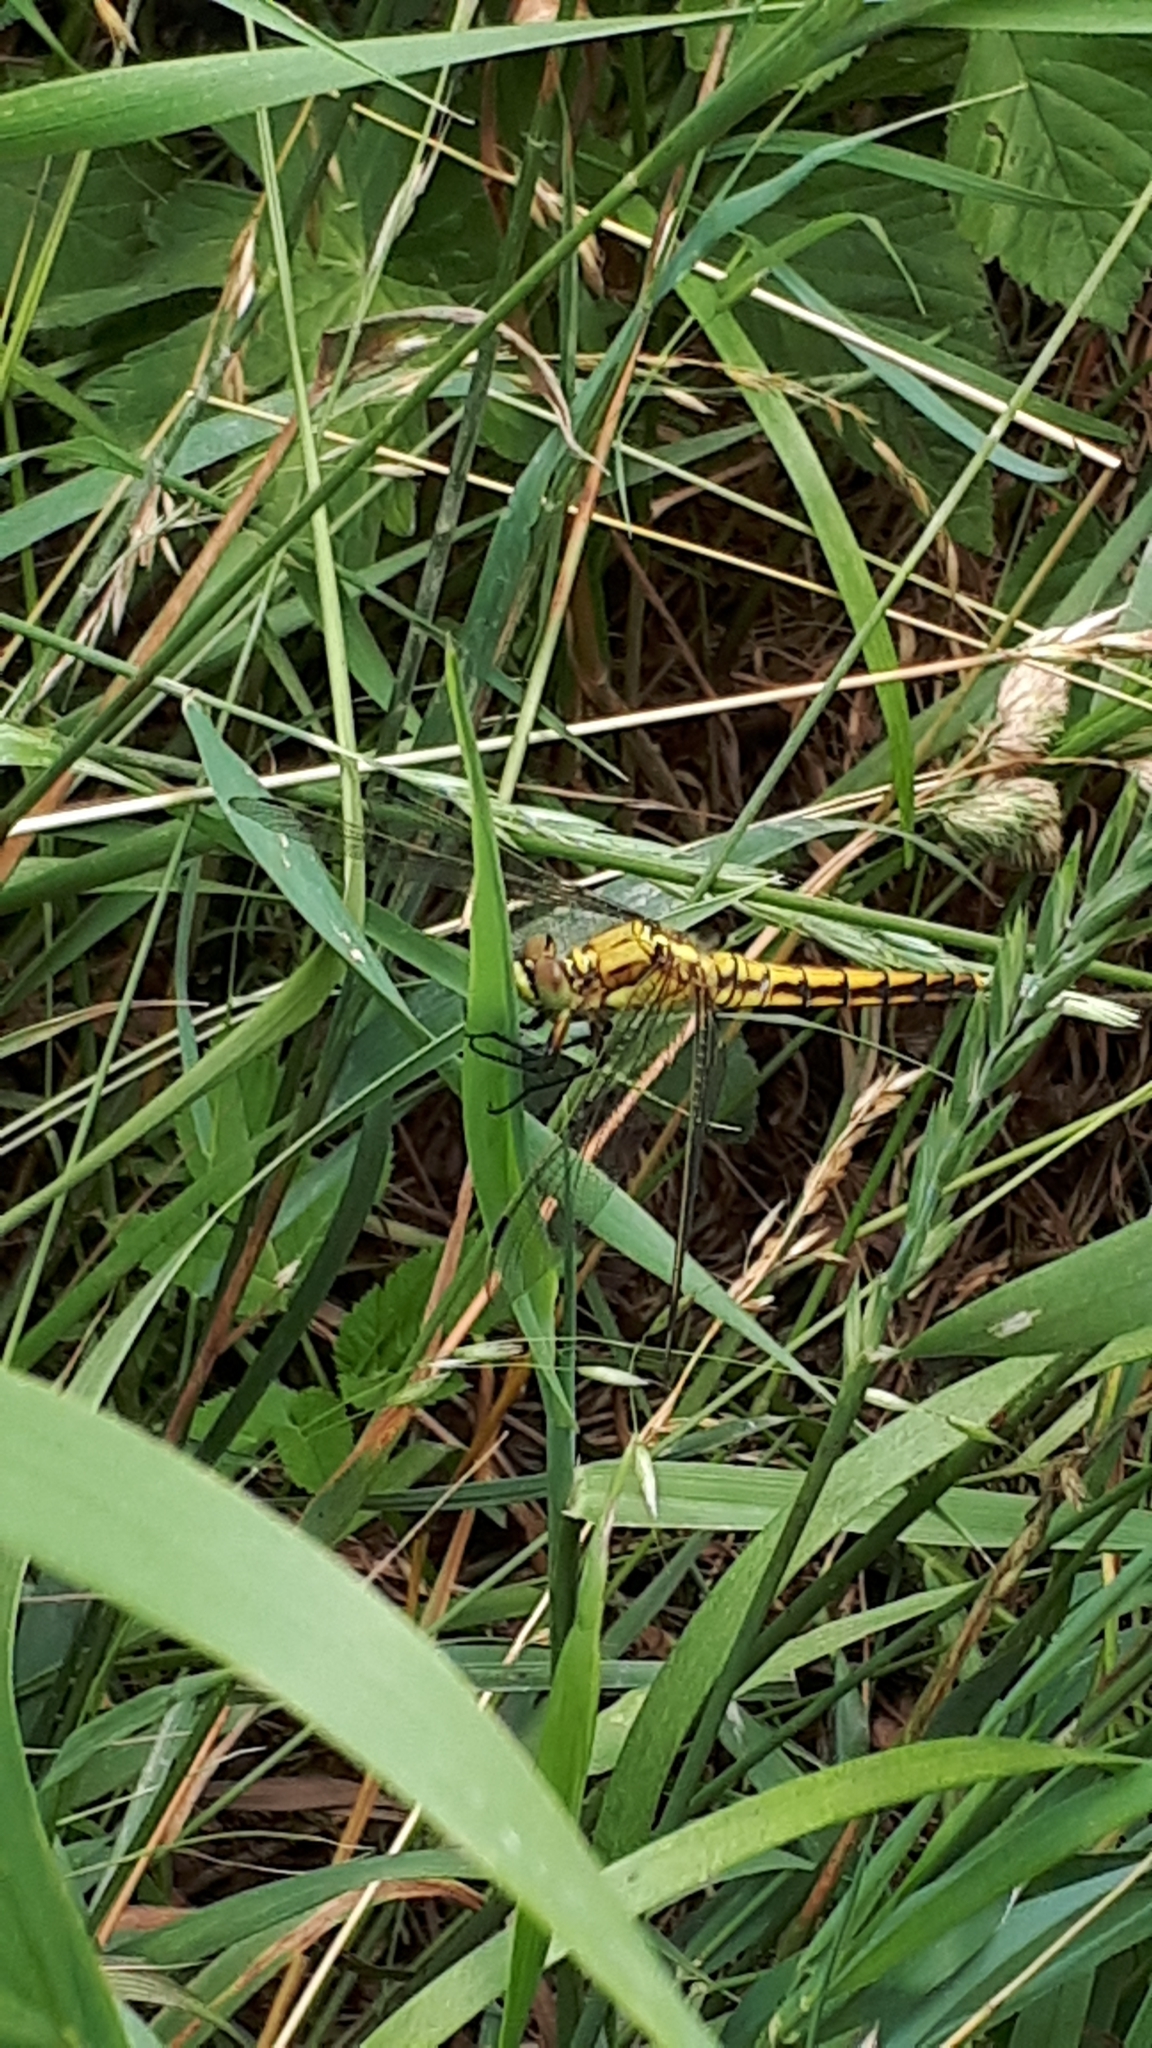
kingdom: Animalia
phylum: Arthropoda
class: Insecta
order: Odonata
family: Libellulidae
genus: Orthetrum
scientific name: Orthetrum cancellatum
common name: Black-tailed skimmer
